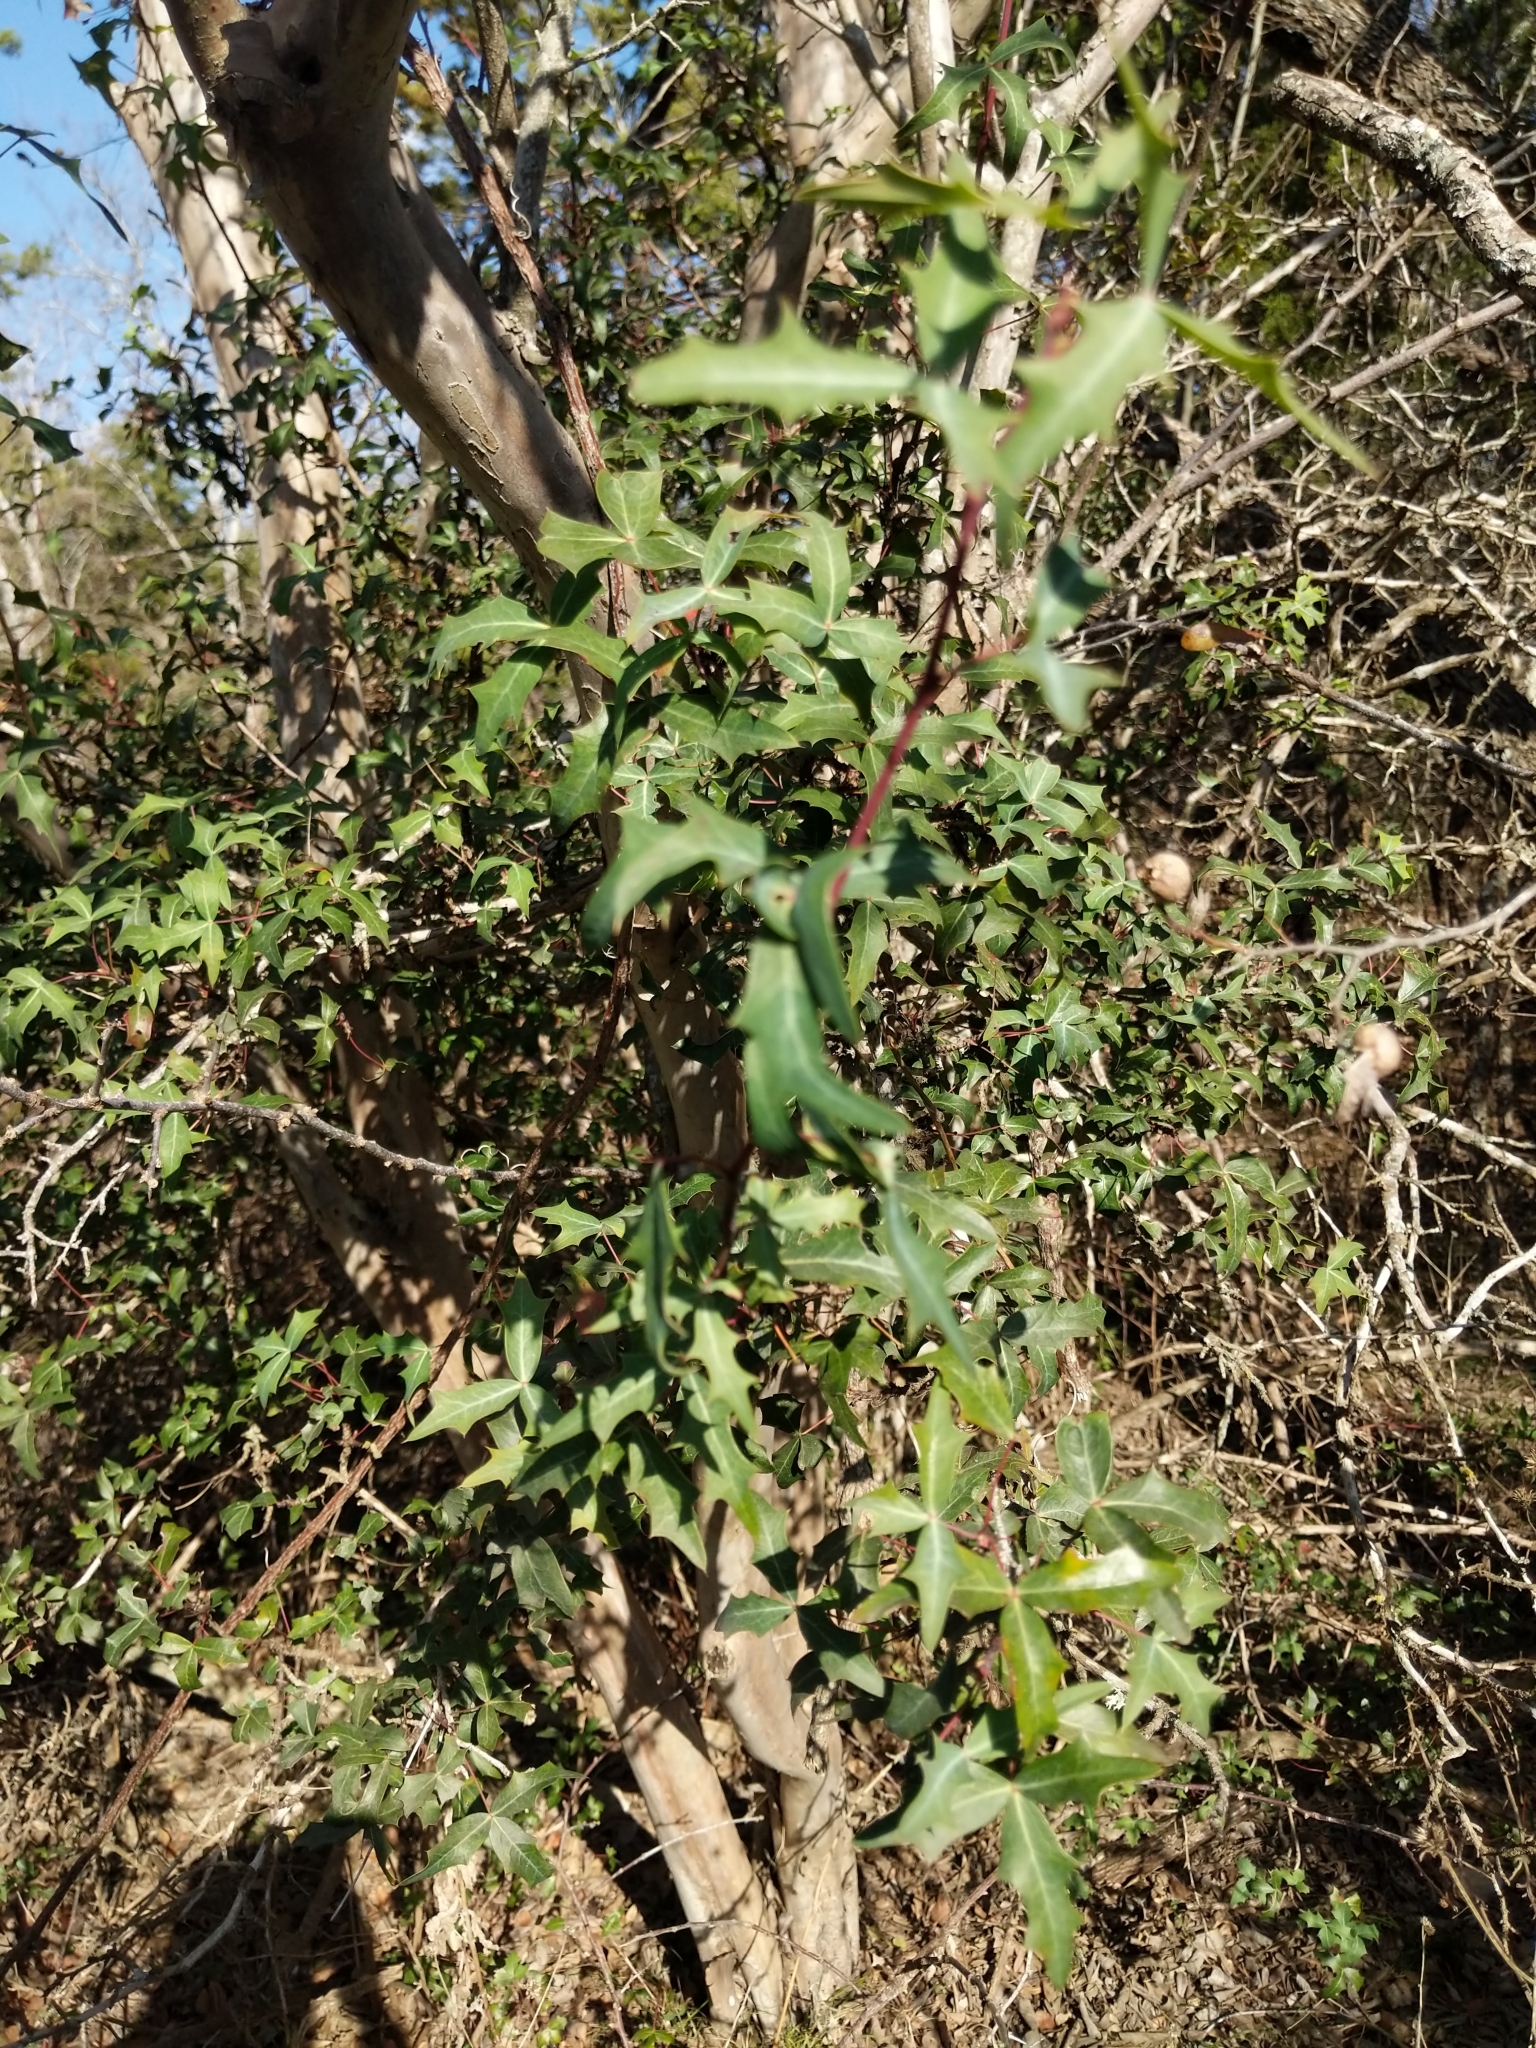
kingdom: Plantae
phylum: Tracheophyta
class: Magnoliopsida
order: Ranunculales
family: Berberidaceae
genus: Alloberberis
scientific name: Alloberberis trifoliolata
